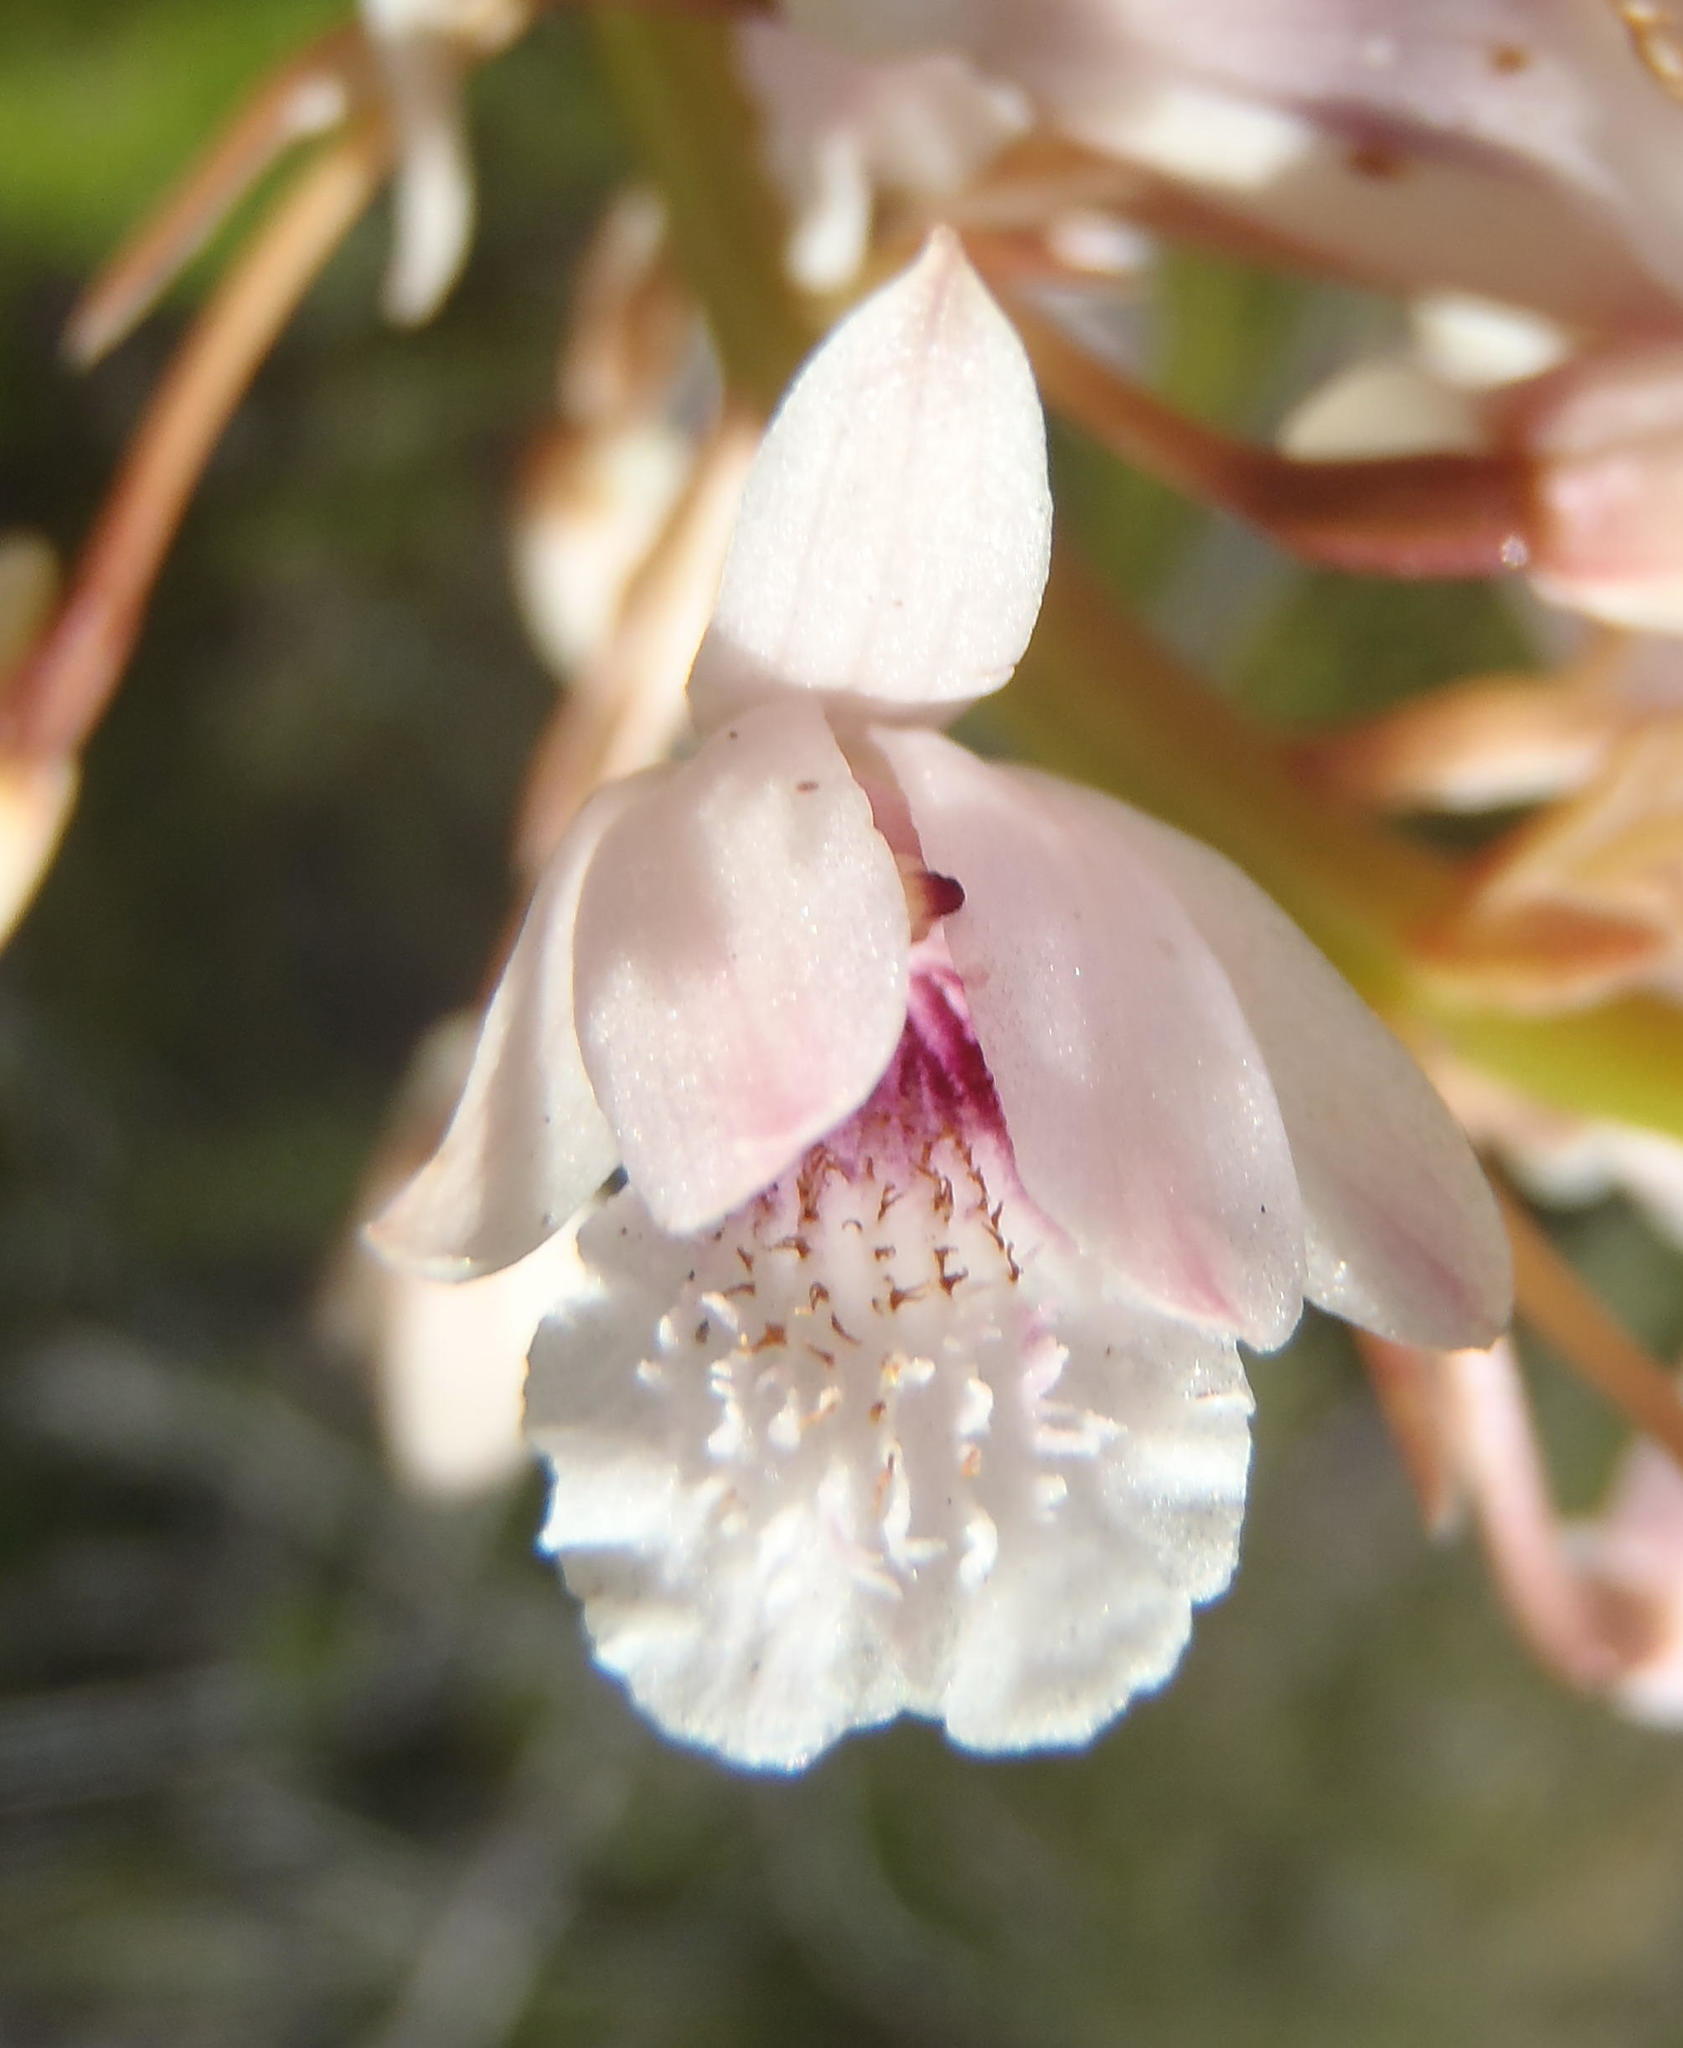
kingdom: Plantae
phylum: Tracheophyta
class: Liliopsida
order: Asparagales
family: Orchidaceae
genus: Eulophia
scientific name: Eulophia barbata
